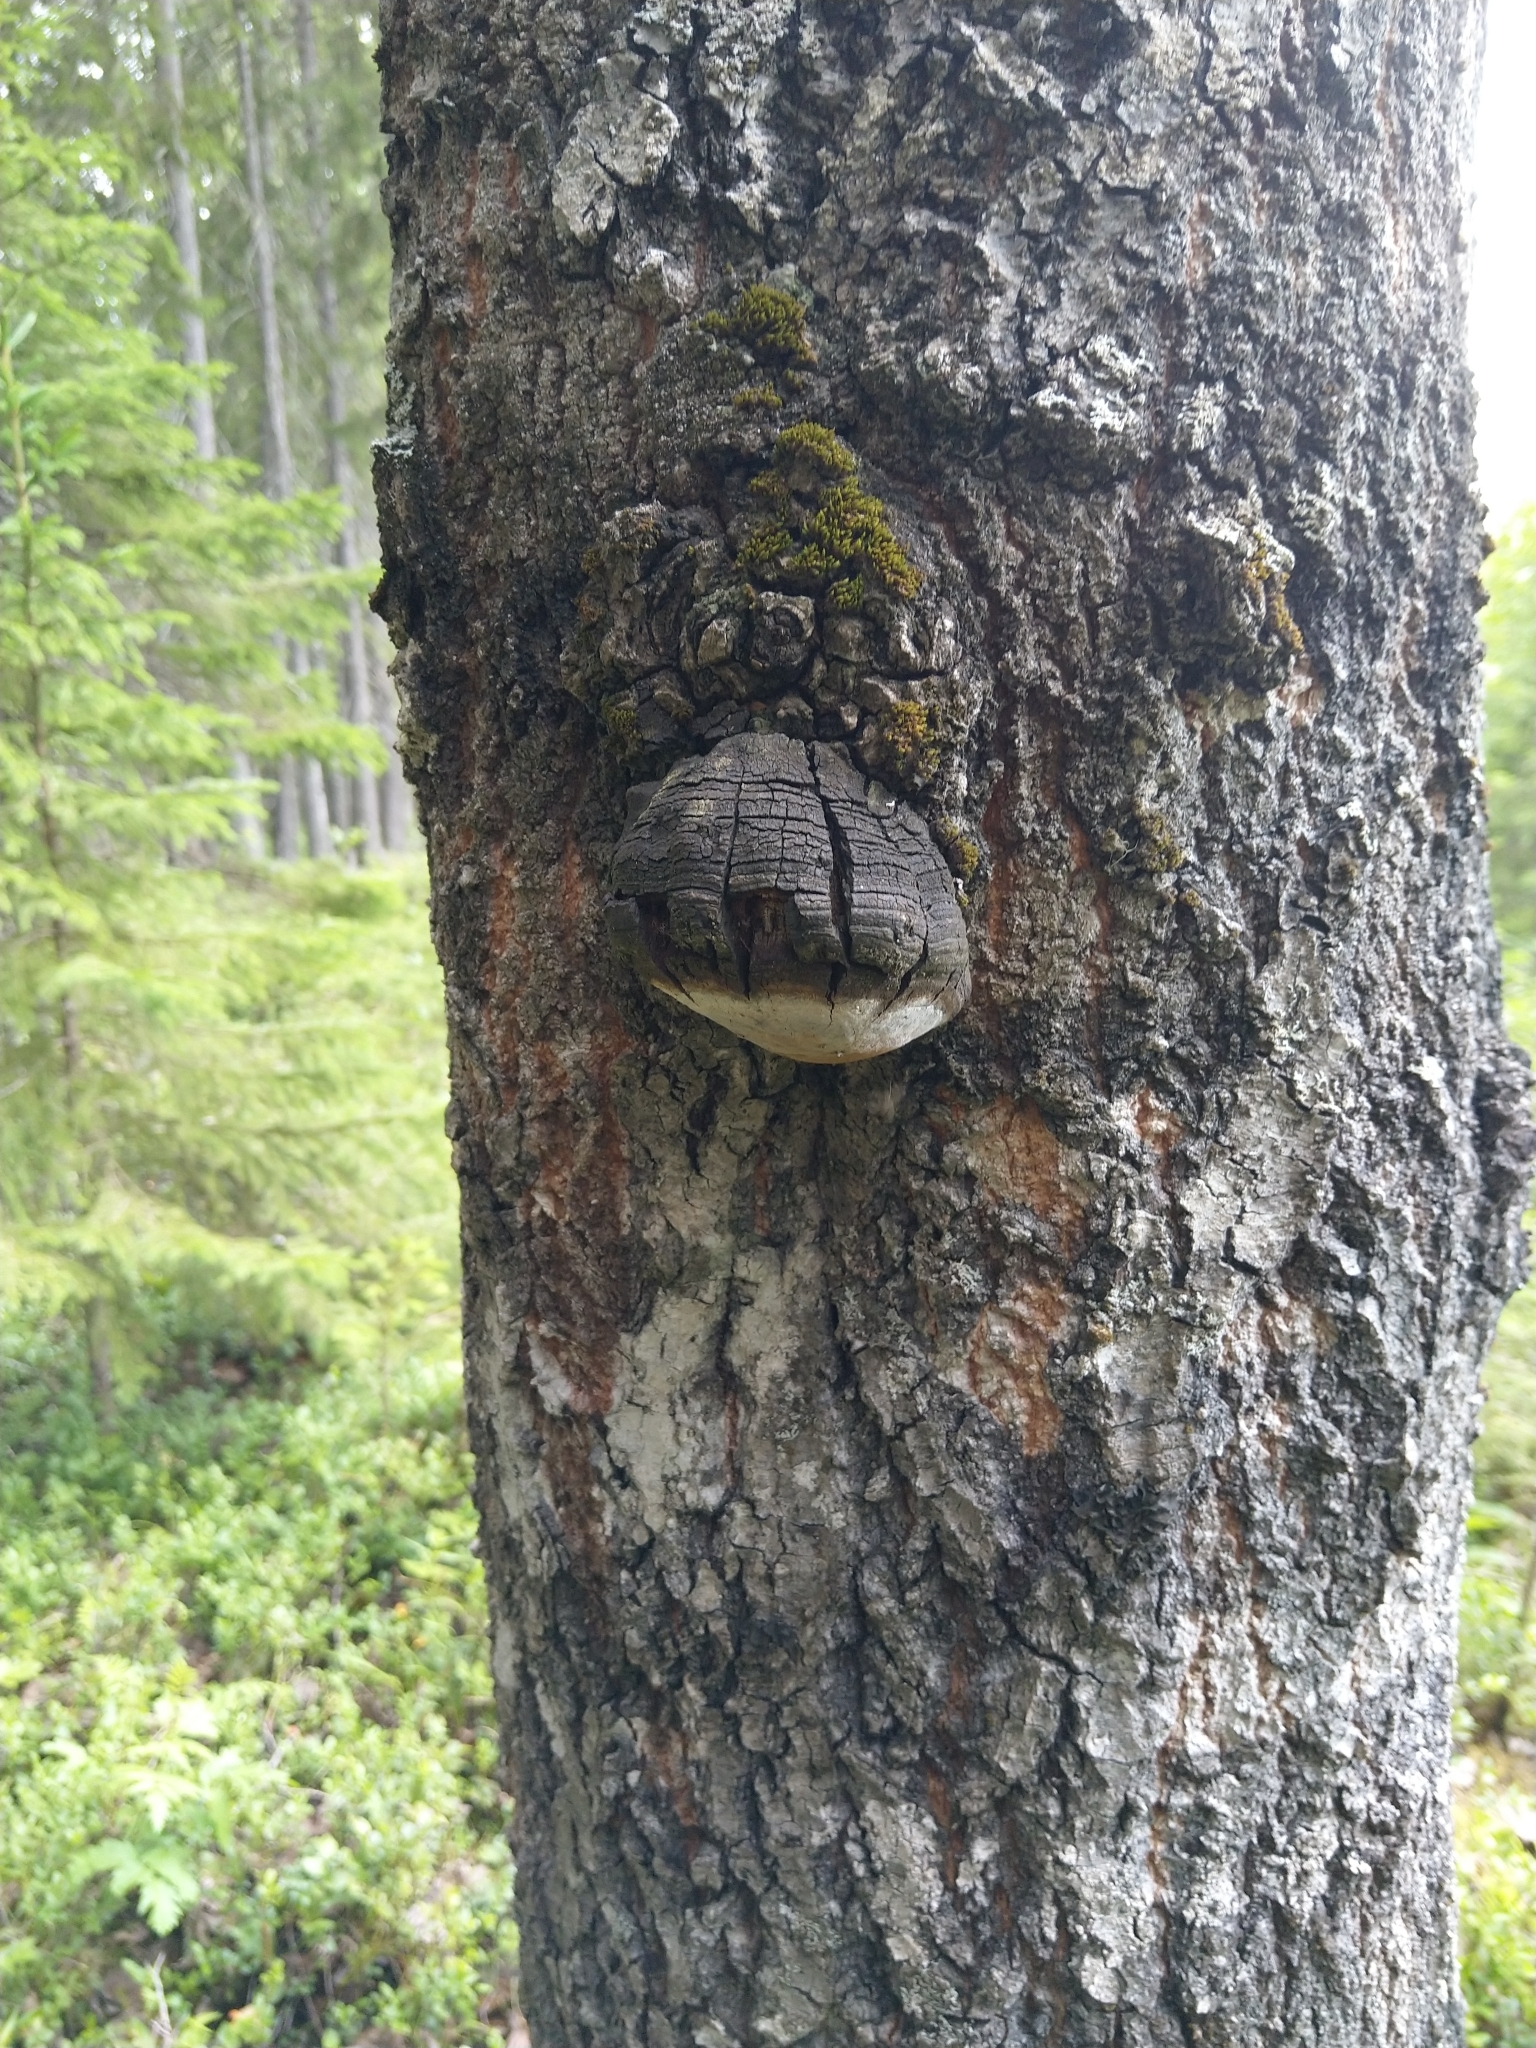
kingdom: Fungi
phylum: Basidiomycota
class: Agaricomycetes
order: Hymenochaetales
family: Hymenochaetaceae
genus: Phellinus
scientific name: Phellinus tremulae
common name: Aspen bracket
